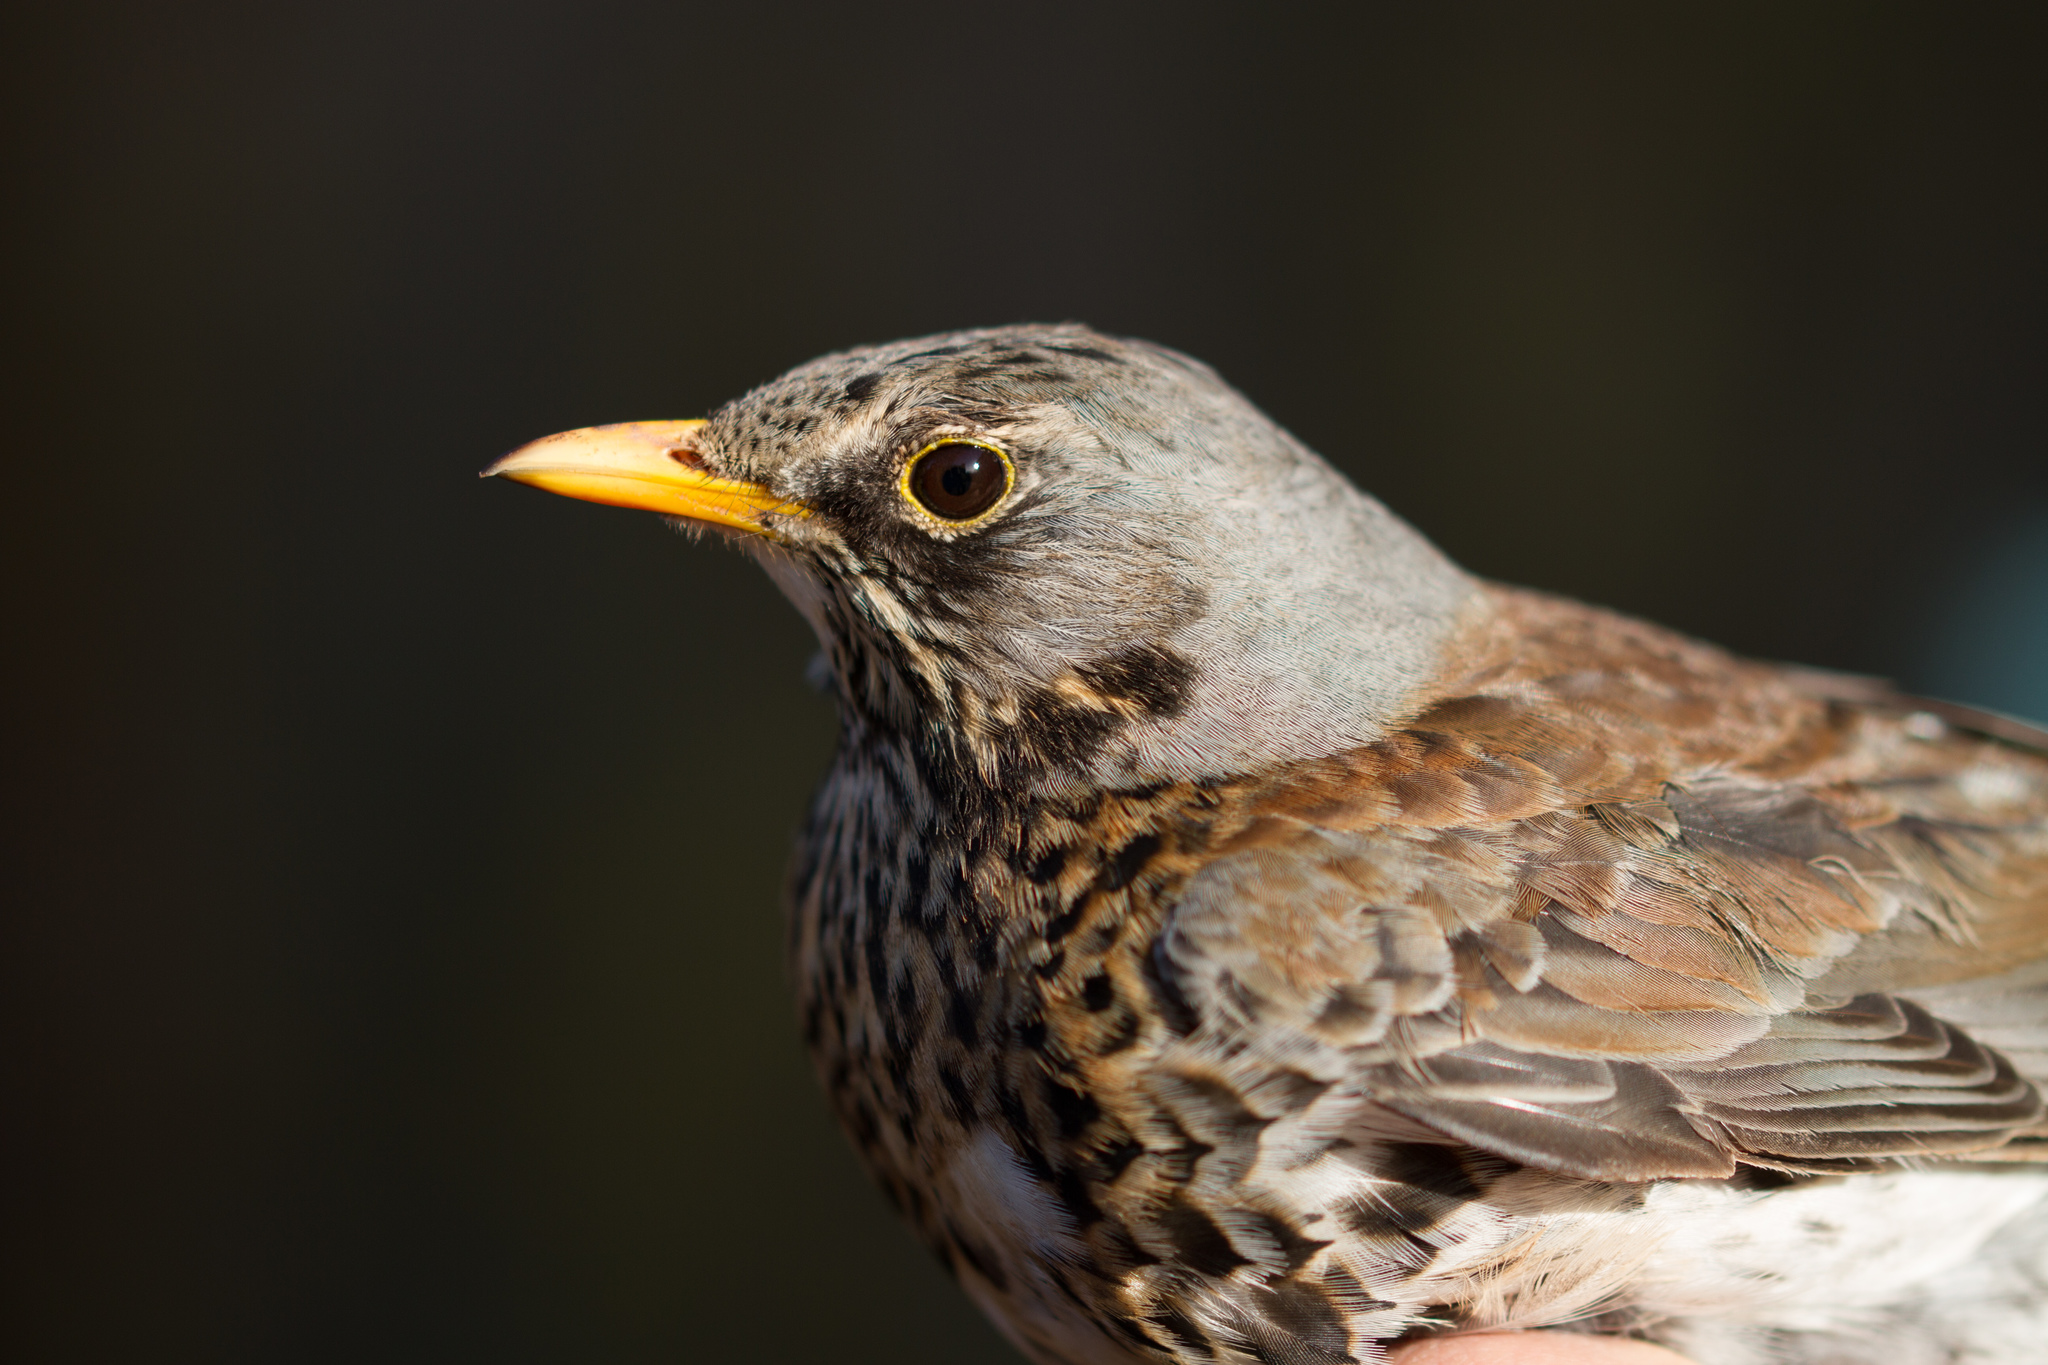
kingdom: Animalia
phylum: Chordata
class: Aves
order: Passeriformes
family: Turdidae
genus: Turdus
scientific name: Turdus pilaris
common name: Fieldfare
